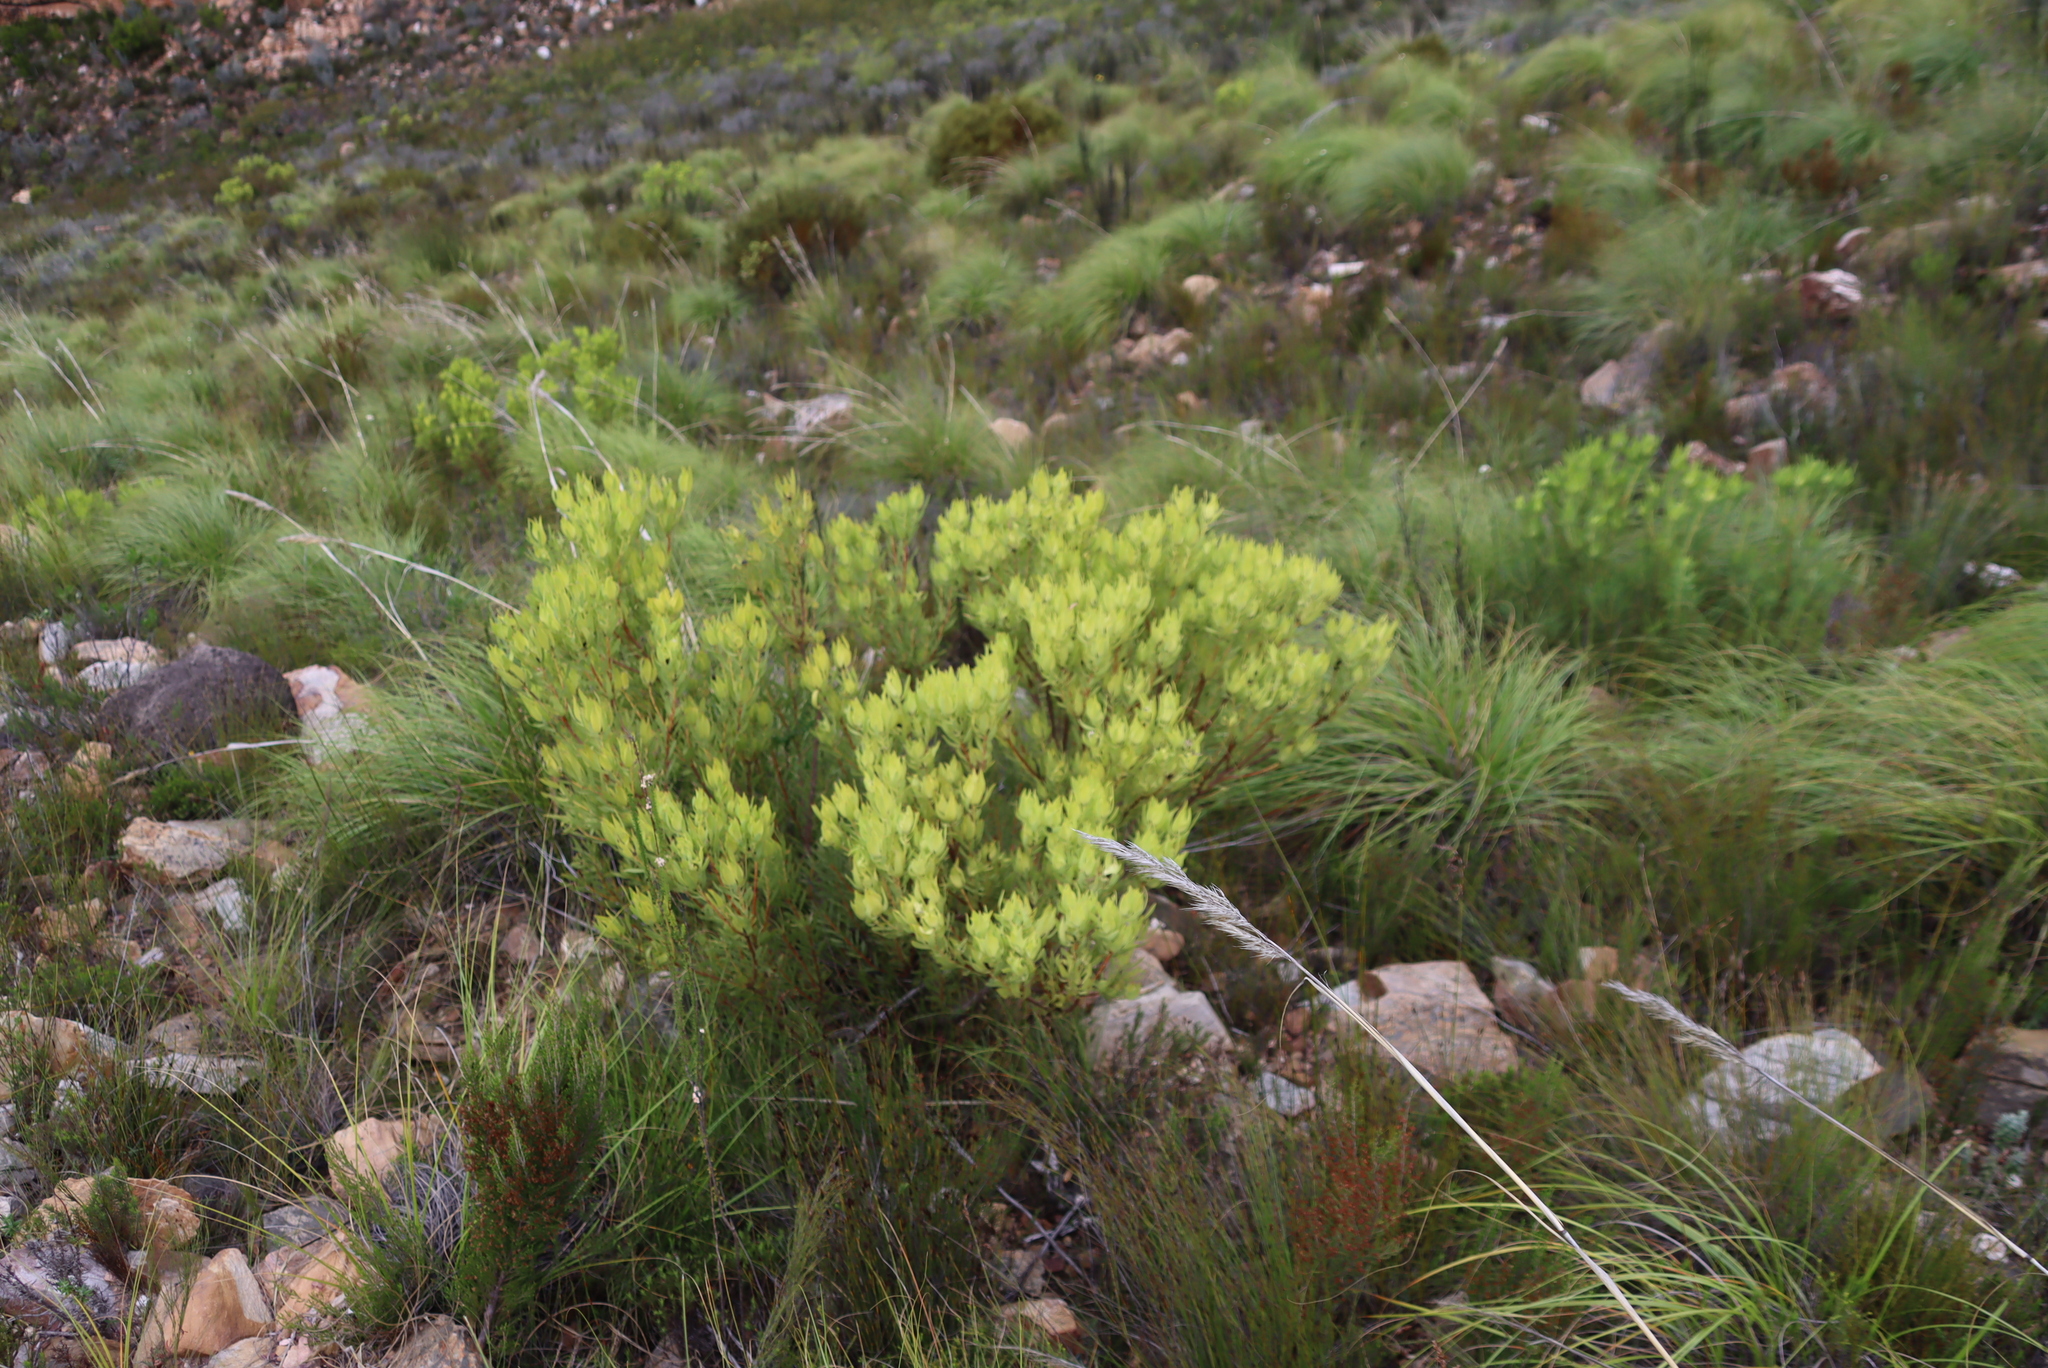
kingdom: Plantae
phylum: Tracheophyta
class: Magnoliopsida
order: Proteales
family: Proteaceae
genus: Leucadendron
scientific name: Leucadendron salignum
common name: Common sunshine conebush
